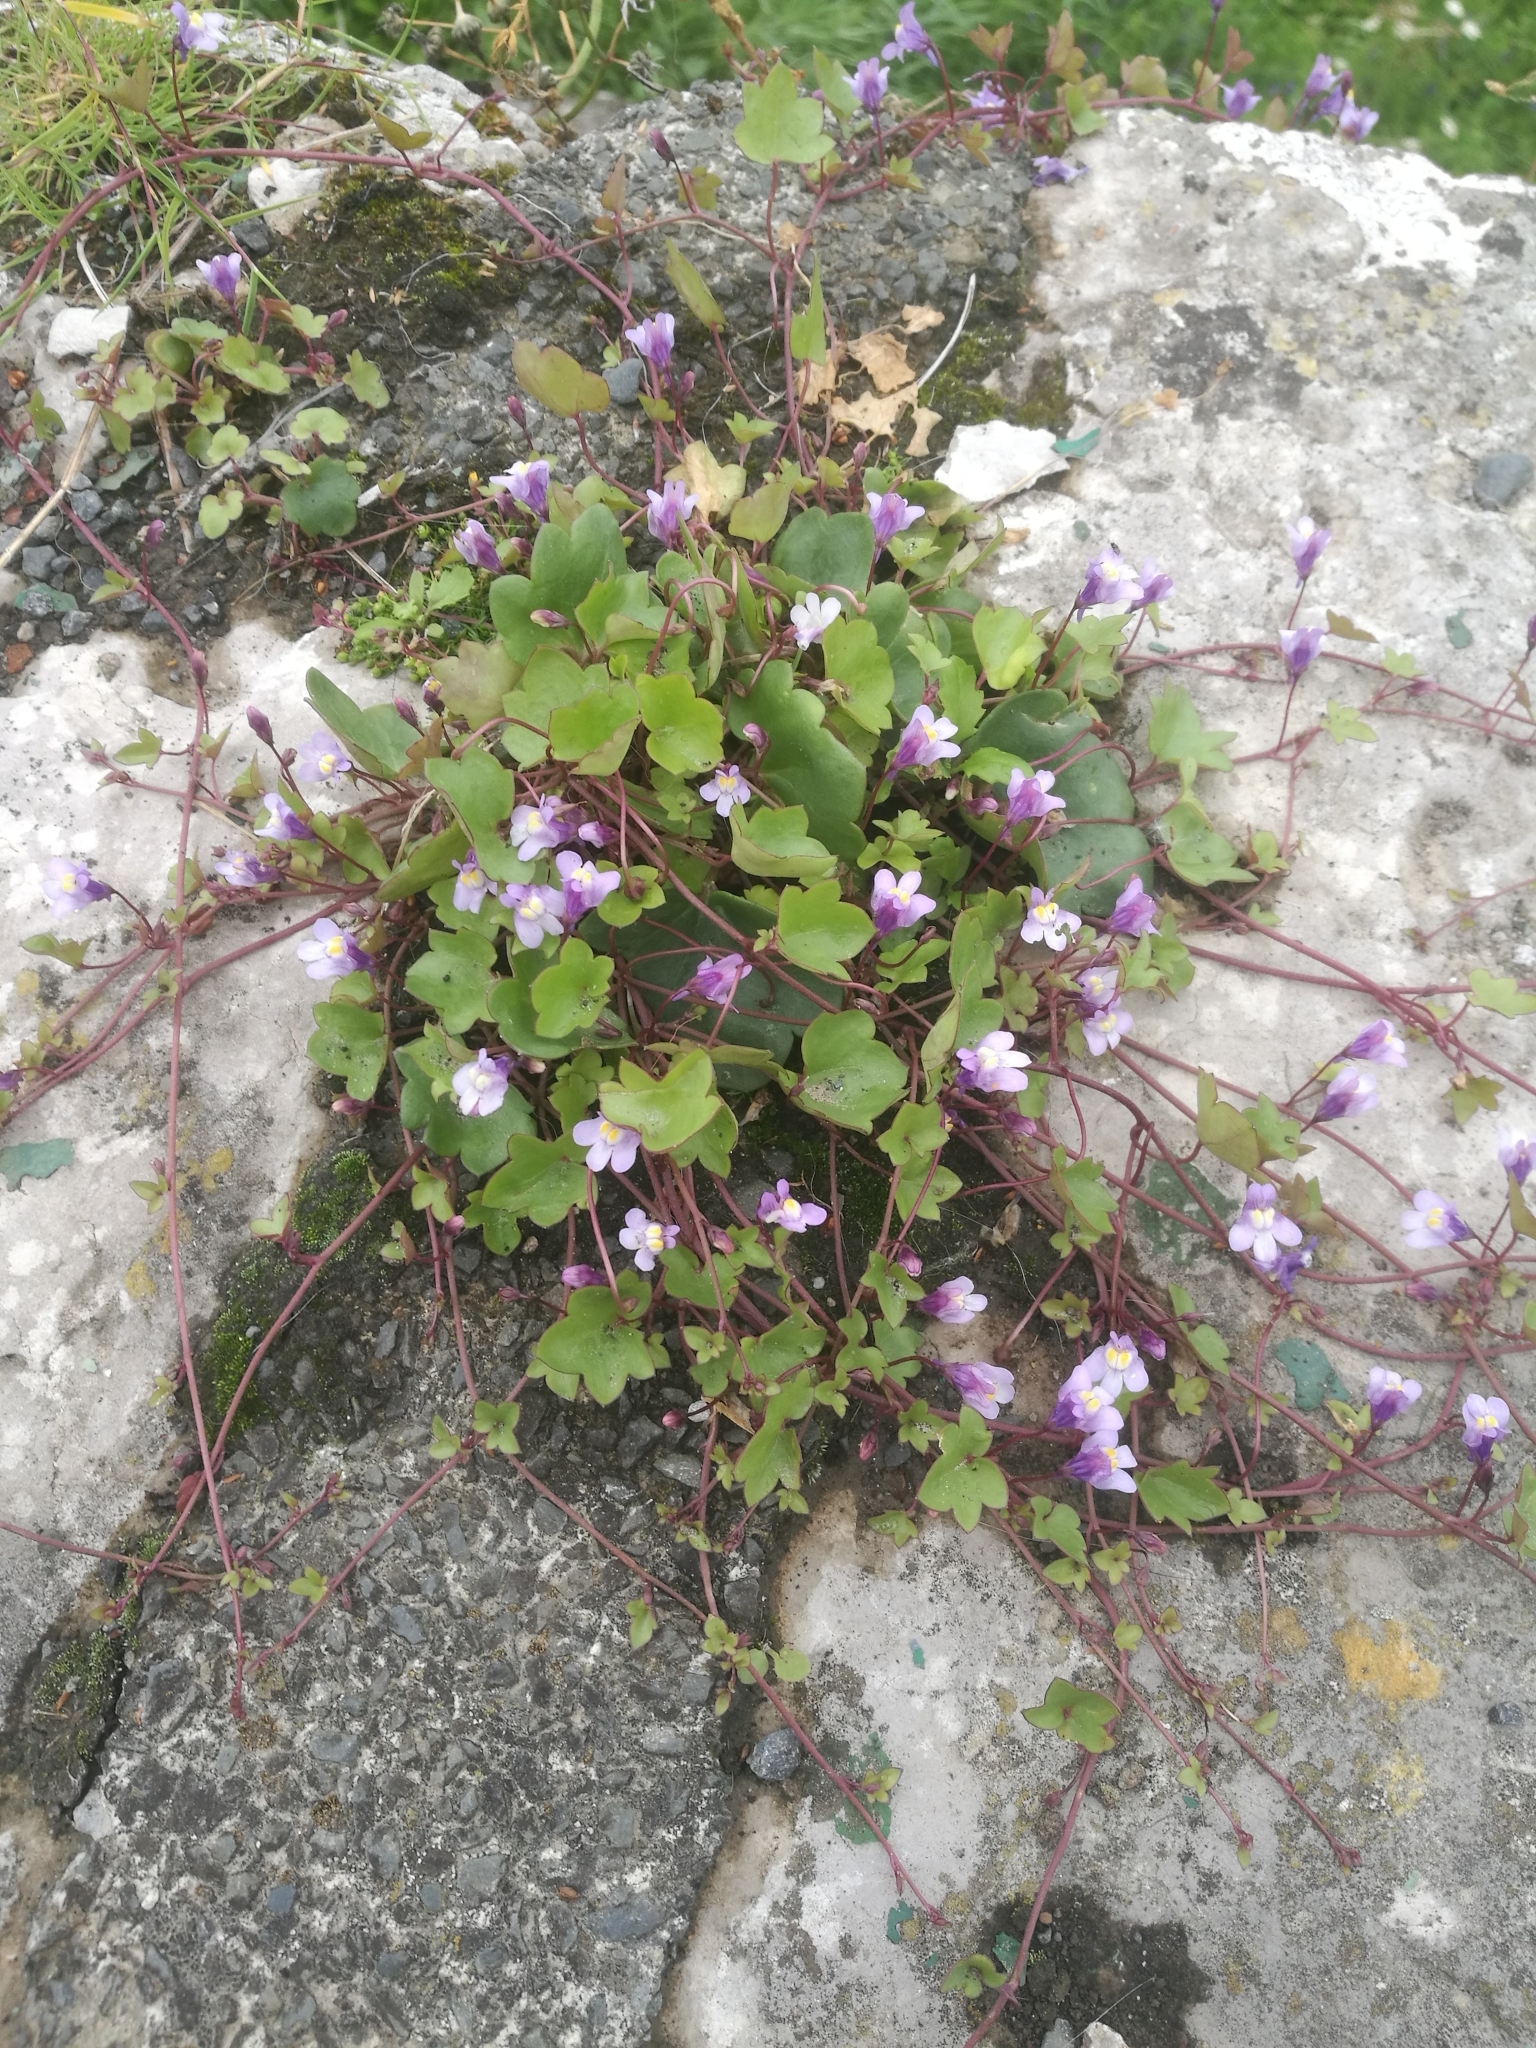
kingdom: Plantae
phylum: Tracheophyta
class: Magnoliopsida
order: Lamiales
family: Plantaginaceae
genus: Cymbalaria
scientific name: Cymbalaria muralis
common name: Ivy-leaved toadflax
